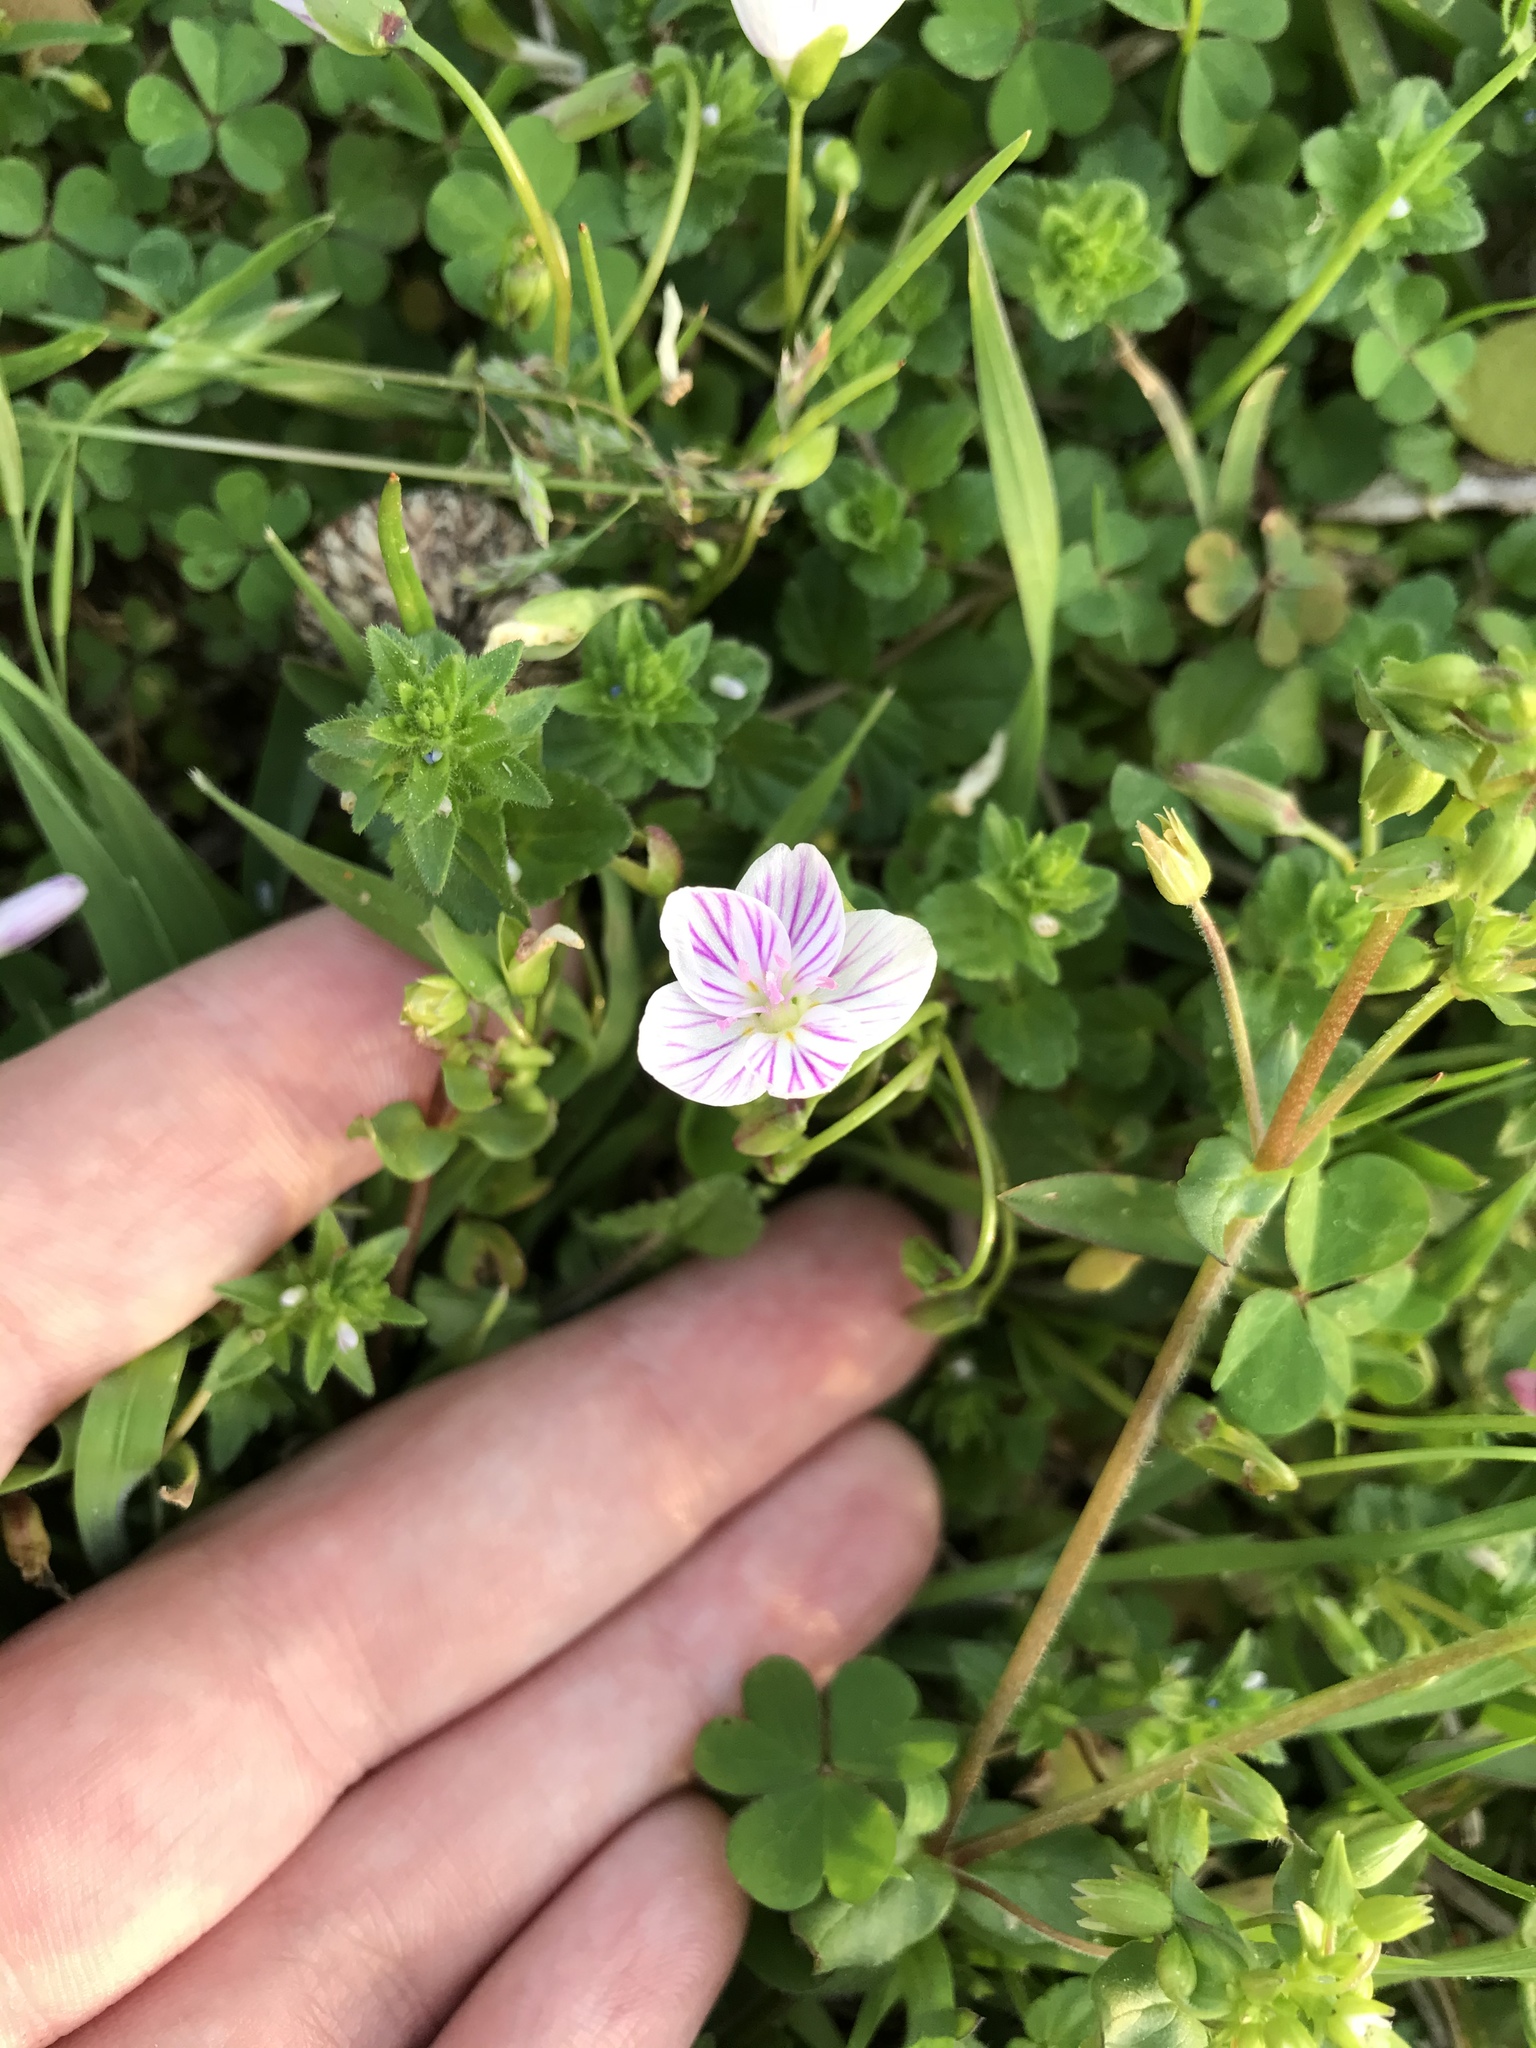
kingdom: Plantae
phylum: Tracheophyta
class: Magnoliopsida
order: Caryophyllales
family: Montiaceae
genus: Claytonia
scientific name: Claytonia virginica
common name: Virginia springbeauty
